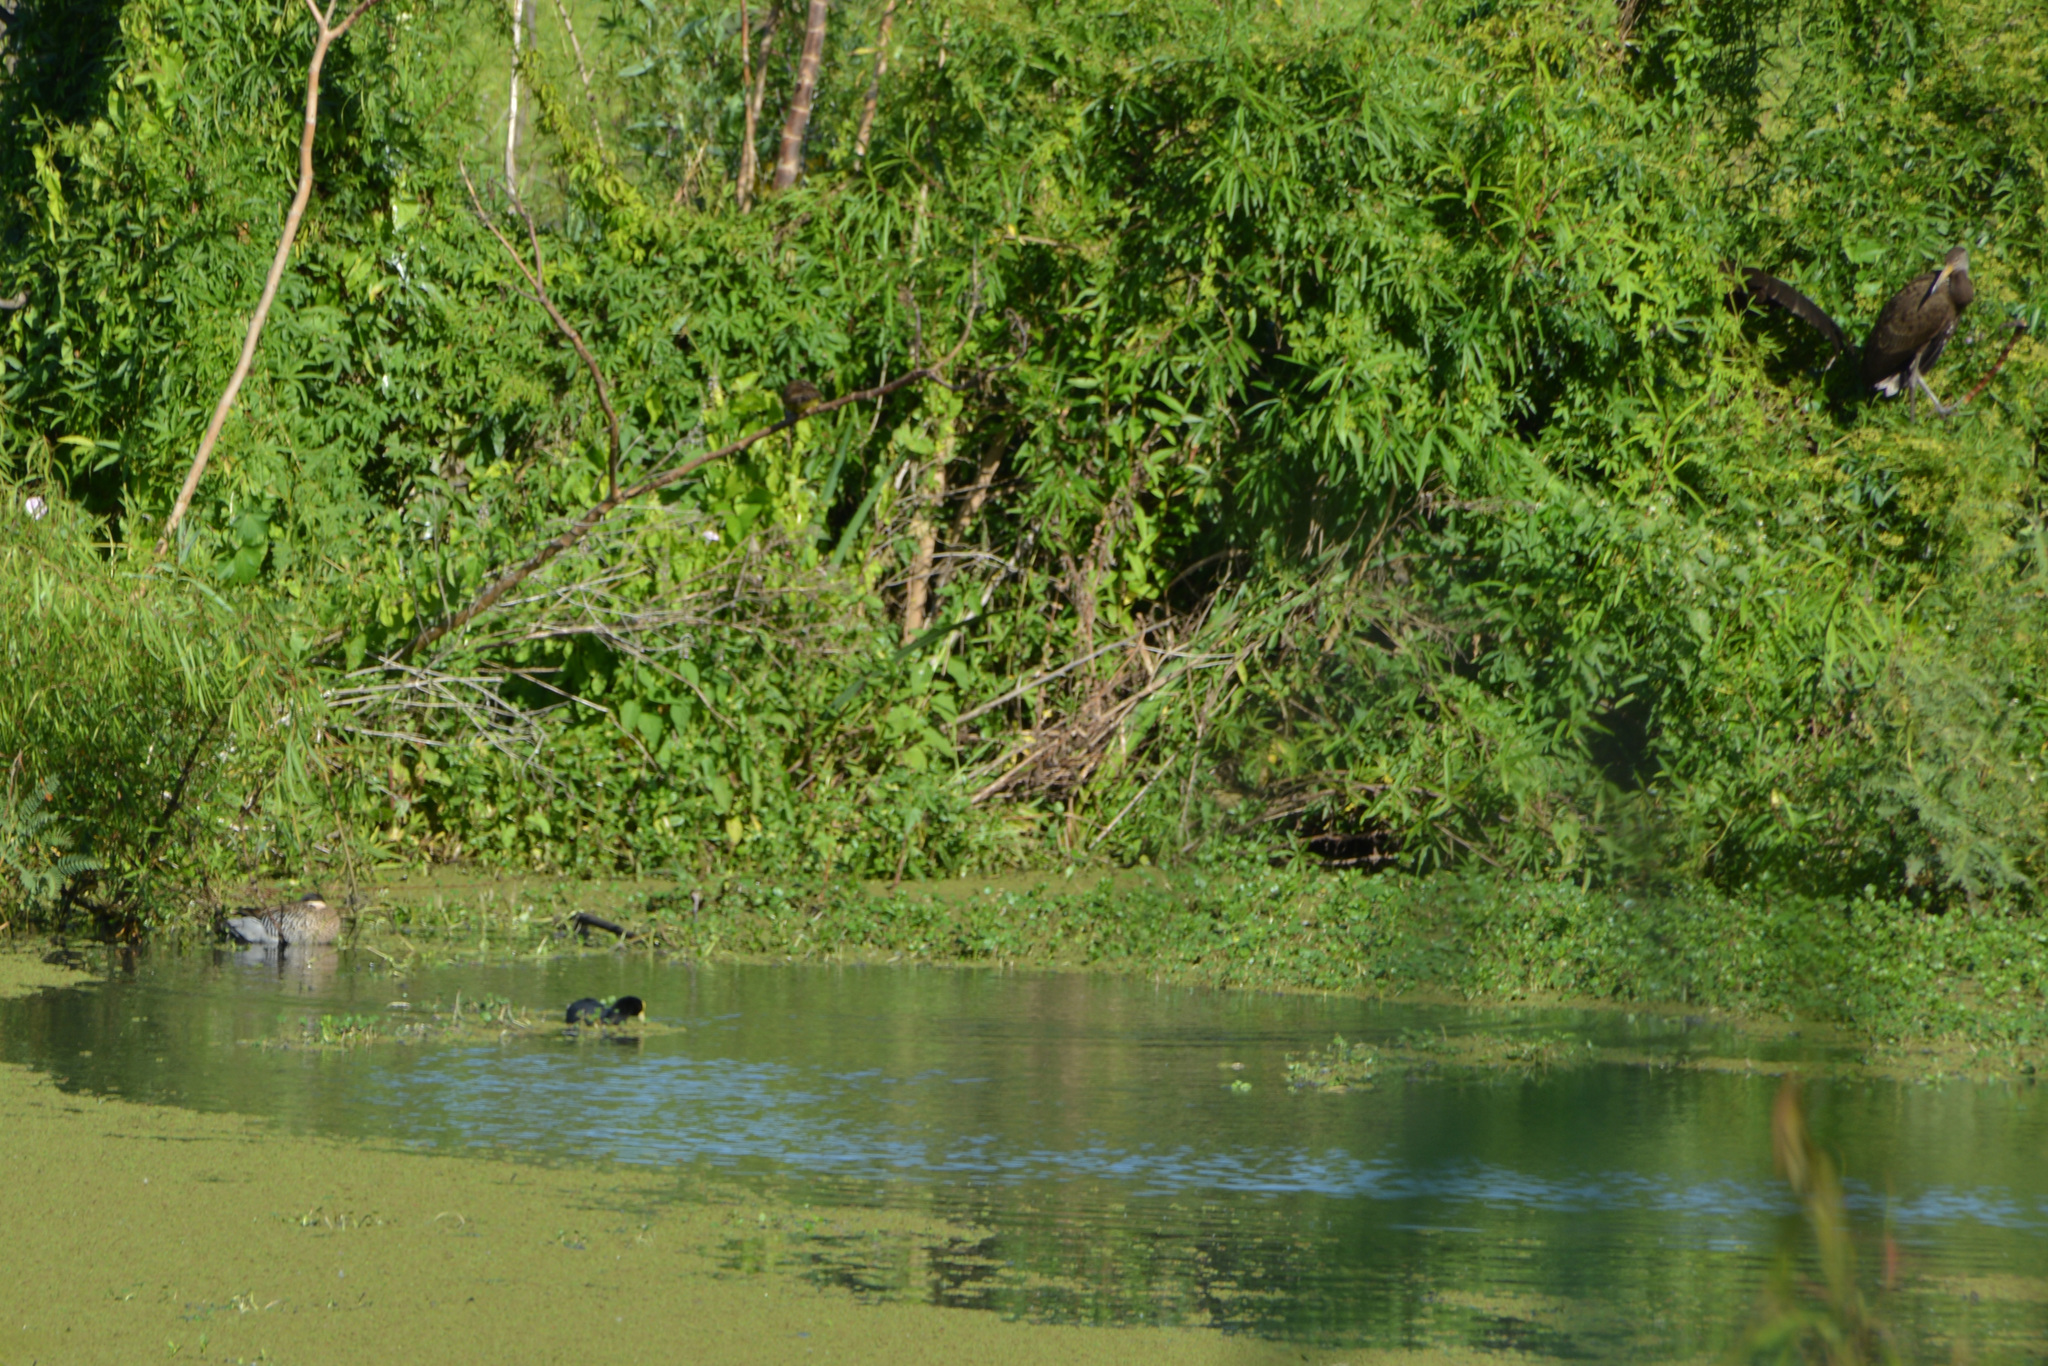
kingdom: Animalia
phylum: Chordata
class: Aves
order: Gruiformes
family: Rallidae
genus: Fulica
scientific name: Fulica armillata
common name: Red-gartered coot
